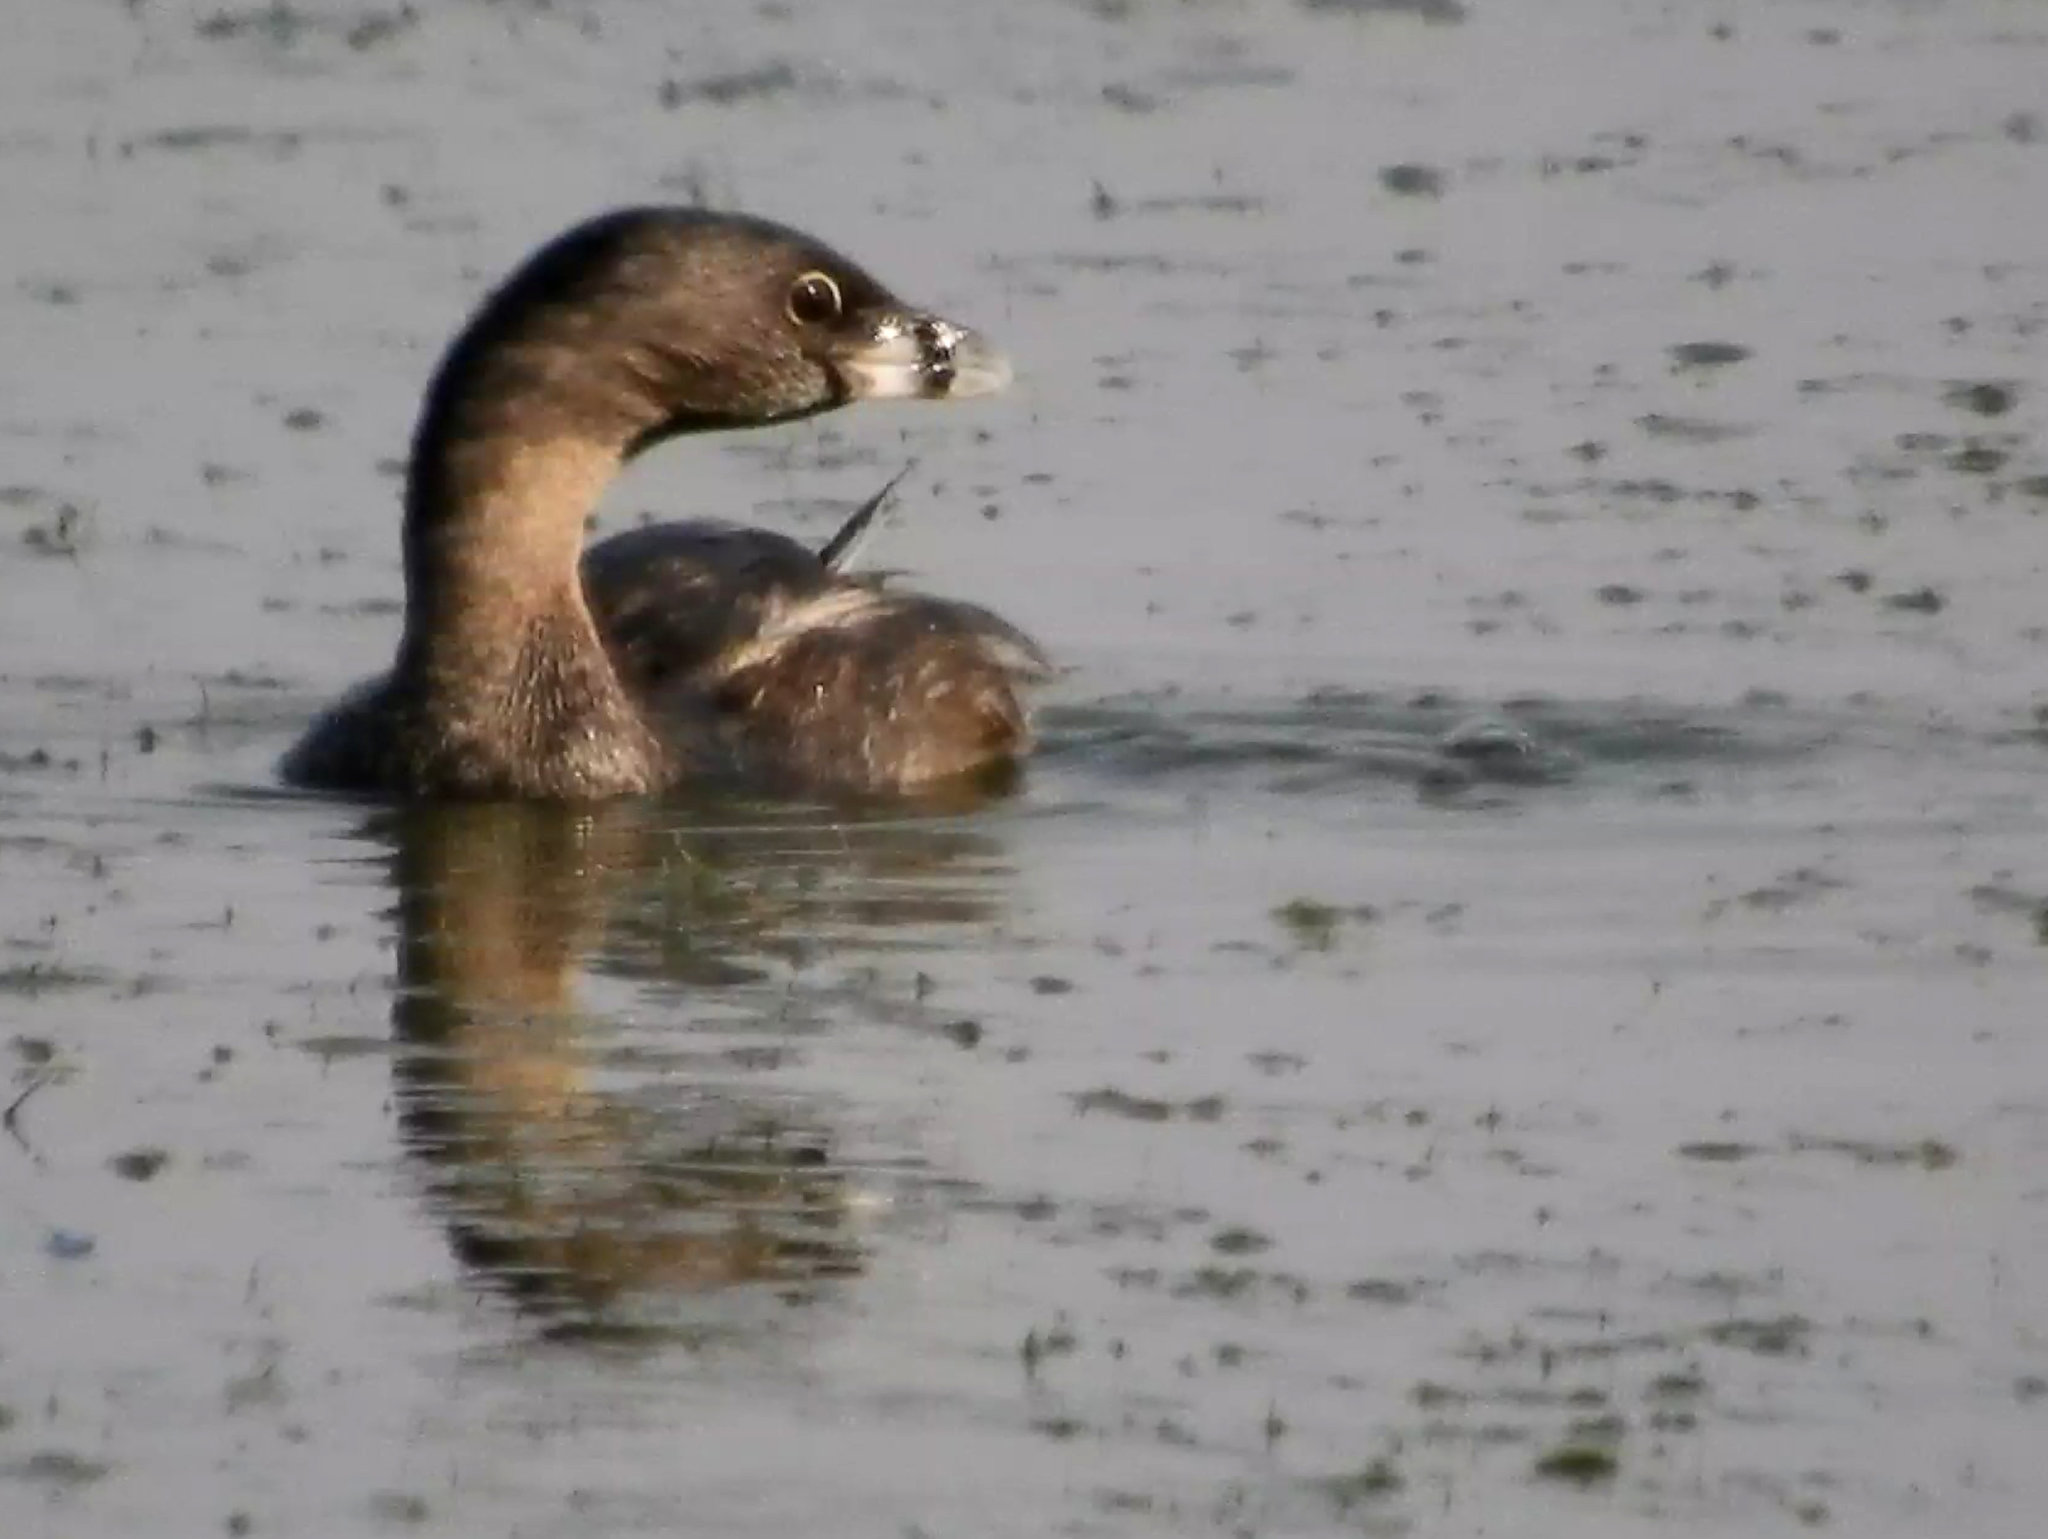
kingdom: Animalia
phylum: Chordata
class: Aves
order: Podicipediformes
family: Podicipedidae
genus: Podilymbus
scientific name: Podilymbus podiceps
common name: Pied-billed grebe
